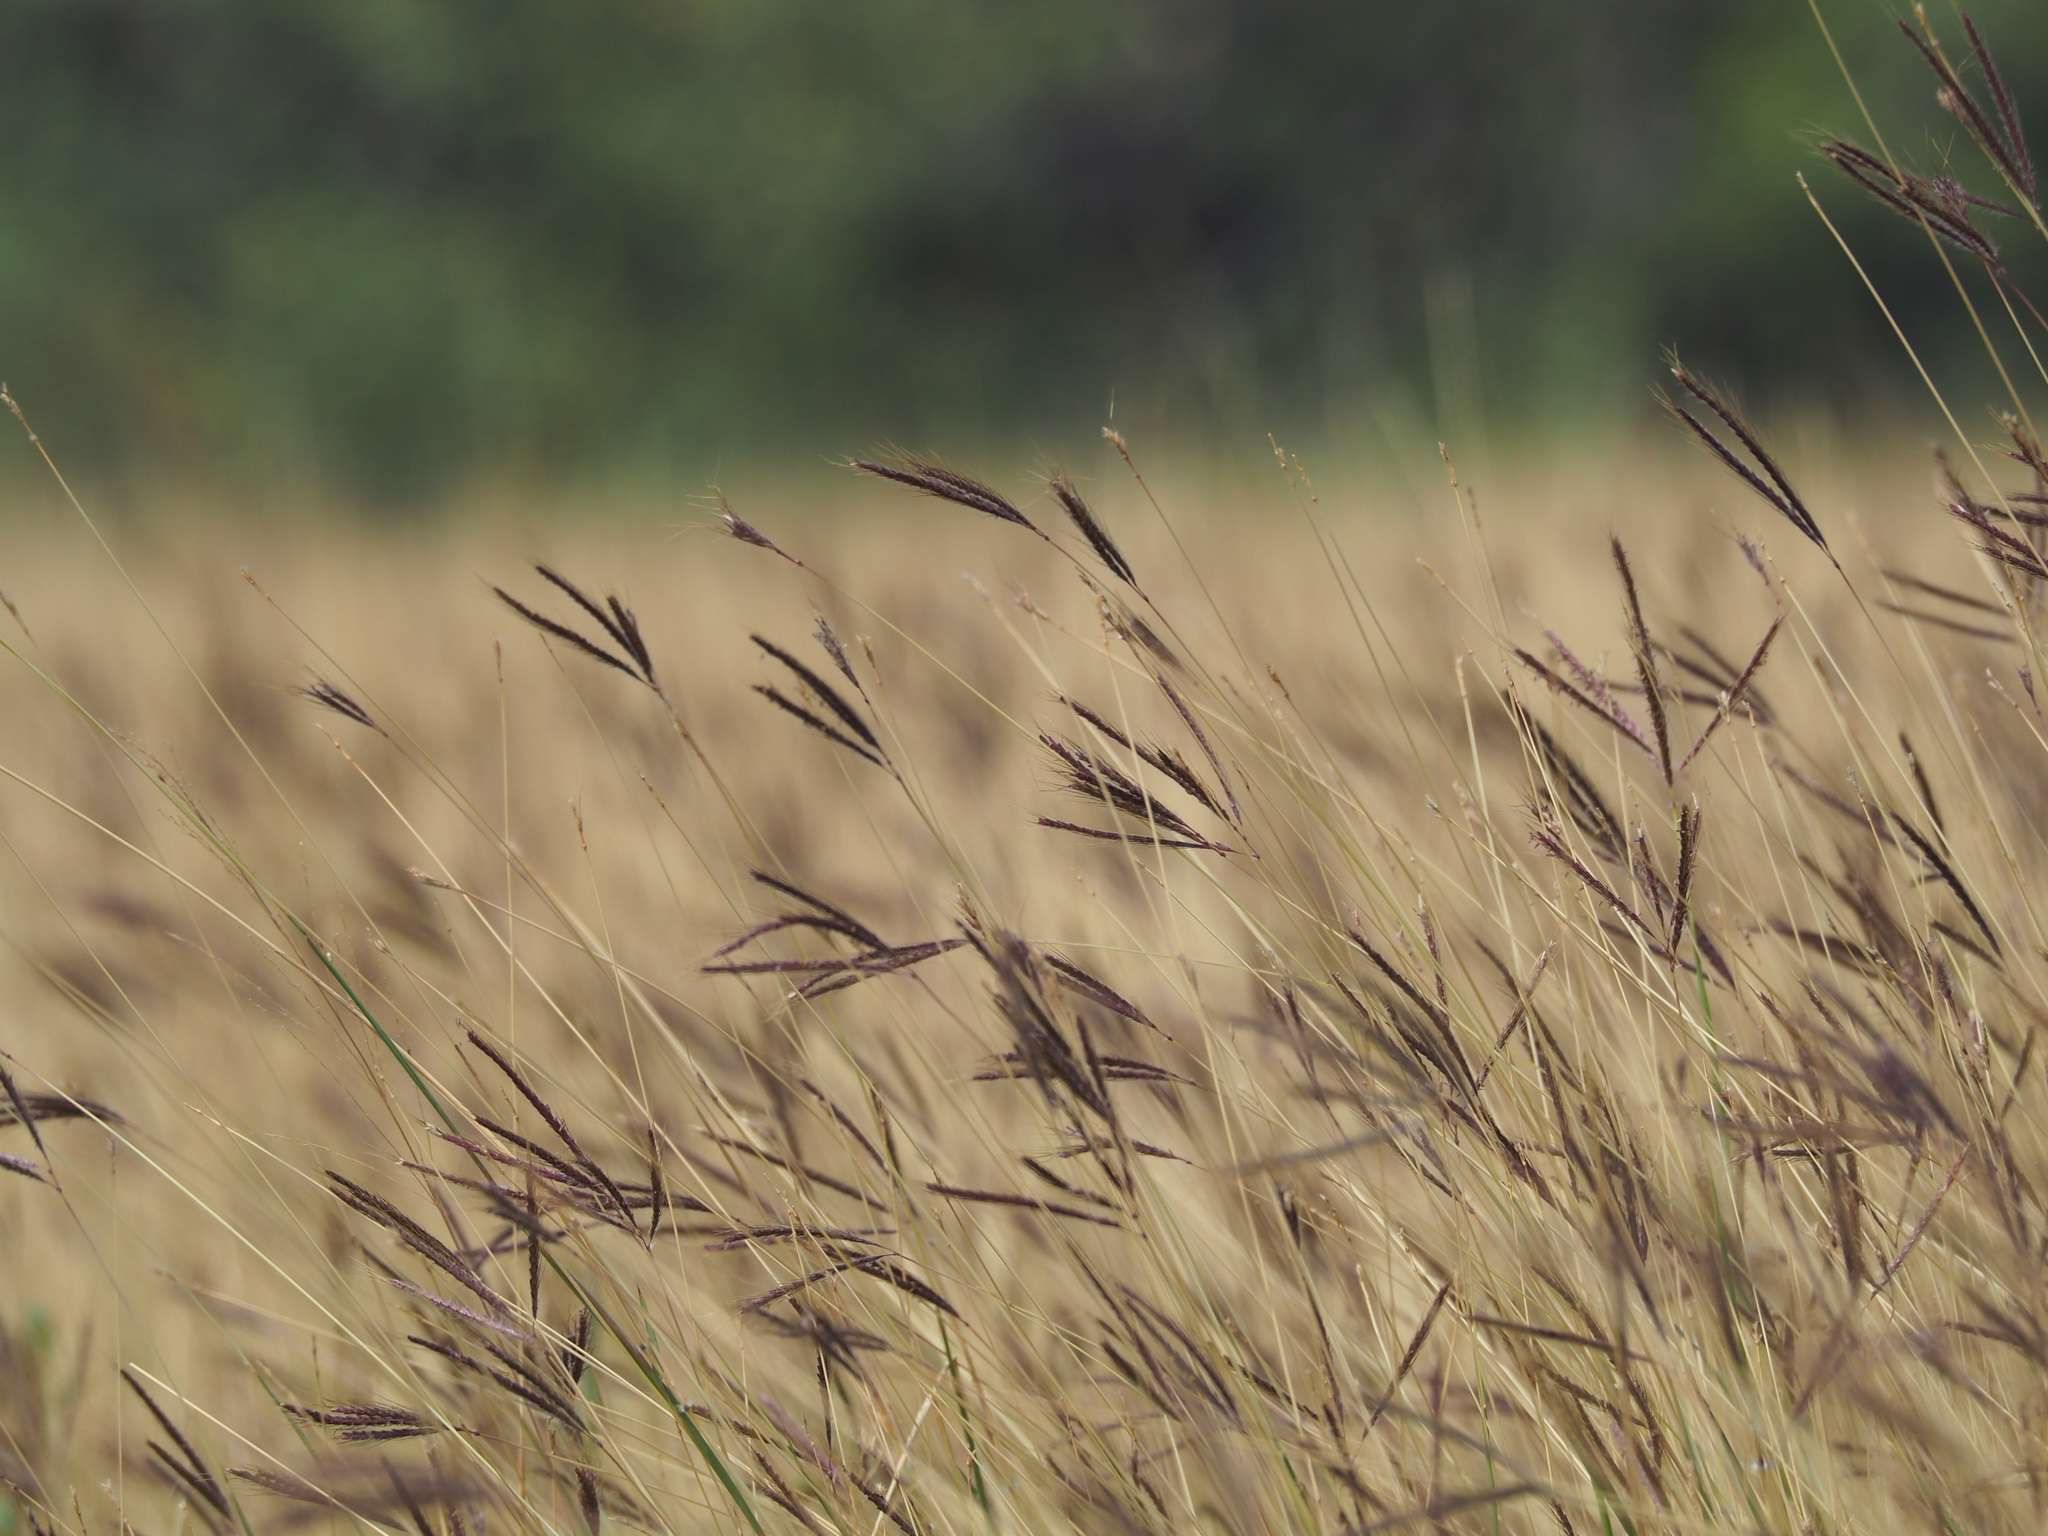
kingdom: Plantae
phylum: Tracheophyta
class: Liliopsida
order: Poales
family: Poaceae
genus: Dichanthium
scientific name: Dichanthium annulatum
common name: Kleberg's bluestem
